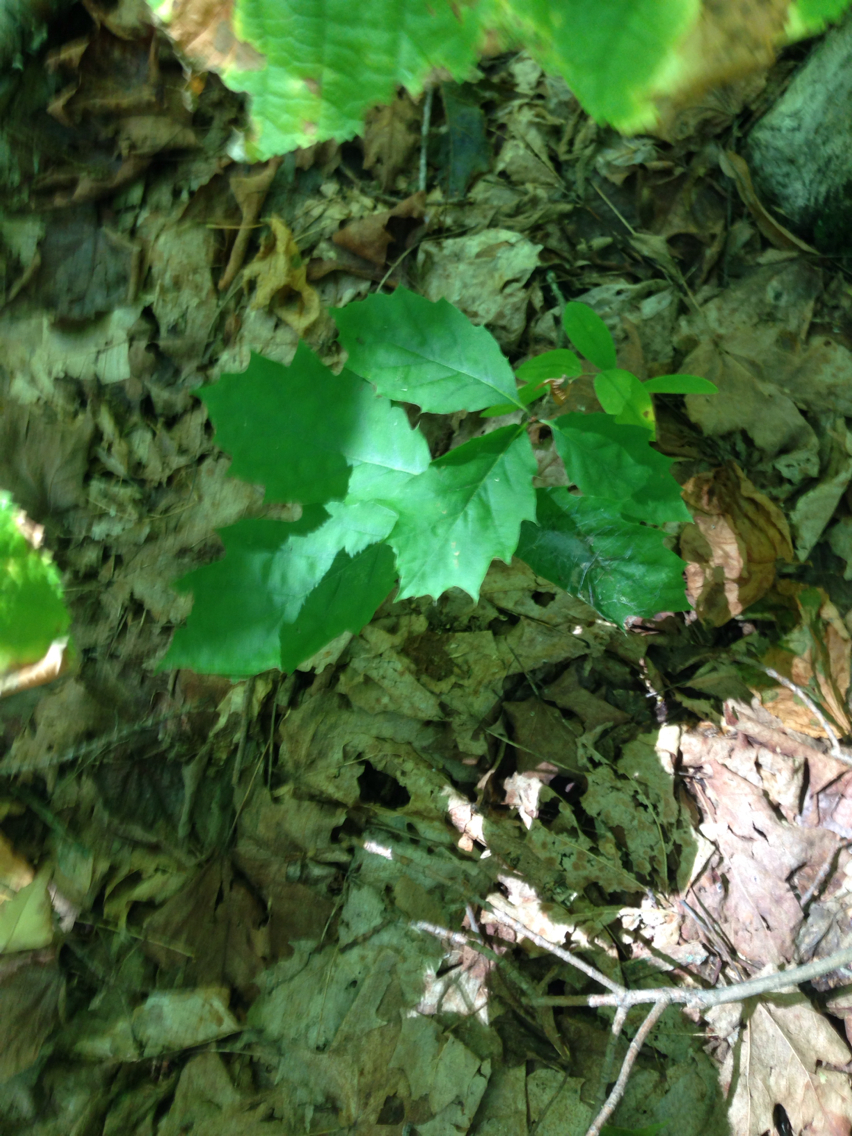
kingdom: Plantae
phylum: Tracheophyta
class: Magnoliopsida
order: Fagales
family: Fagaceae
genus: Quercus
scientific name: Quercus rubra
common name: Red oak
